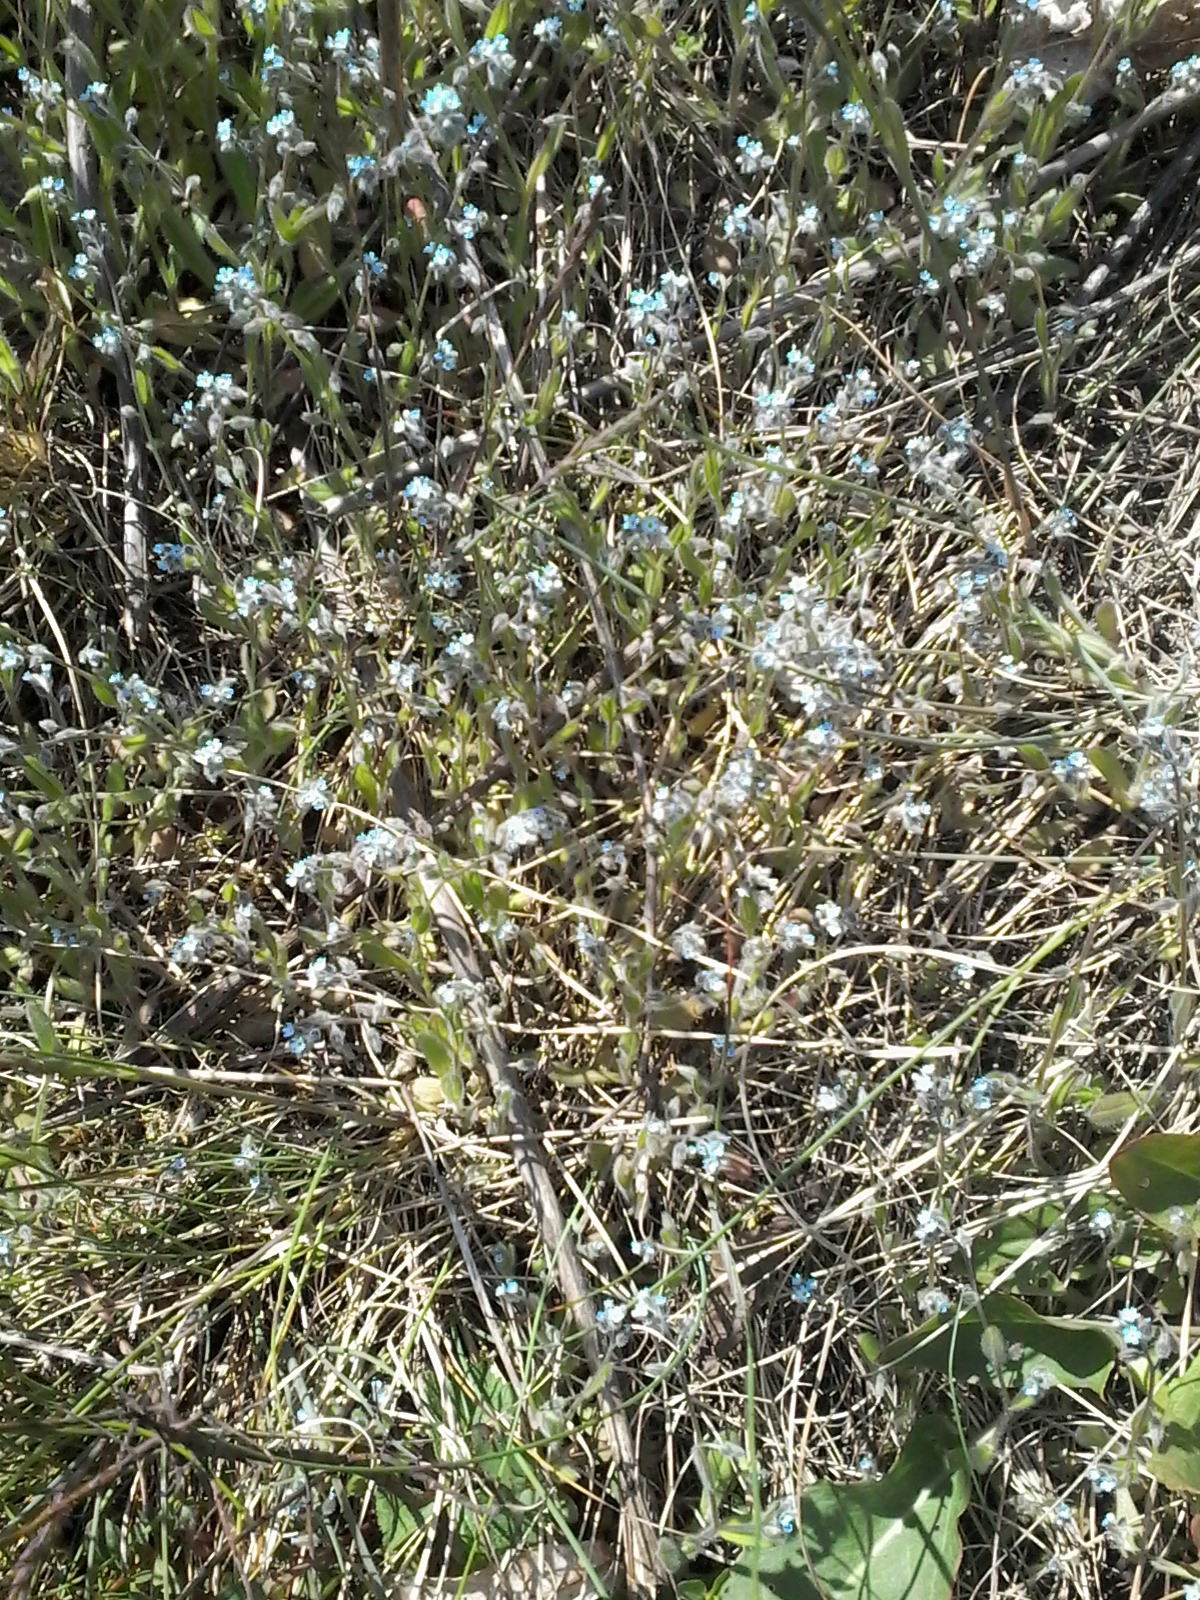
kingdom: Plantae
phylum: Tracheophyta
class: Magnoliopsida
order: Boraginales
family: Boraginaceae
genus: Myosotis
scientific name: Myosotis arvensis
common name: Field forget-me-not
